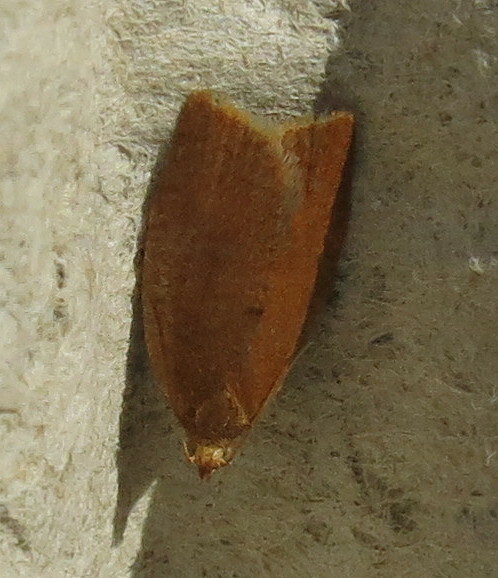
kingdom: Animalia
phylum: Arthropoda
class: Insecta
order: Lepidoptera
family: Tortricidae
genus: Clepsis
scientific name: Clepsis consimilana
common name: Privet tortrix
